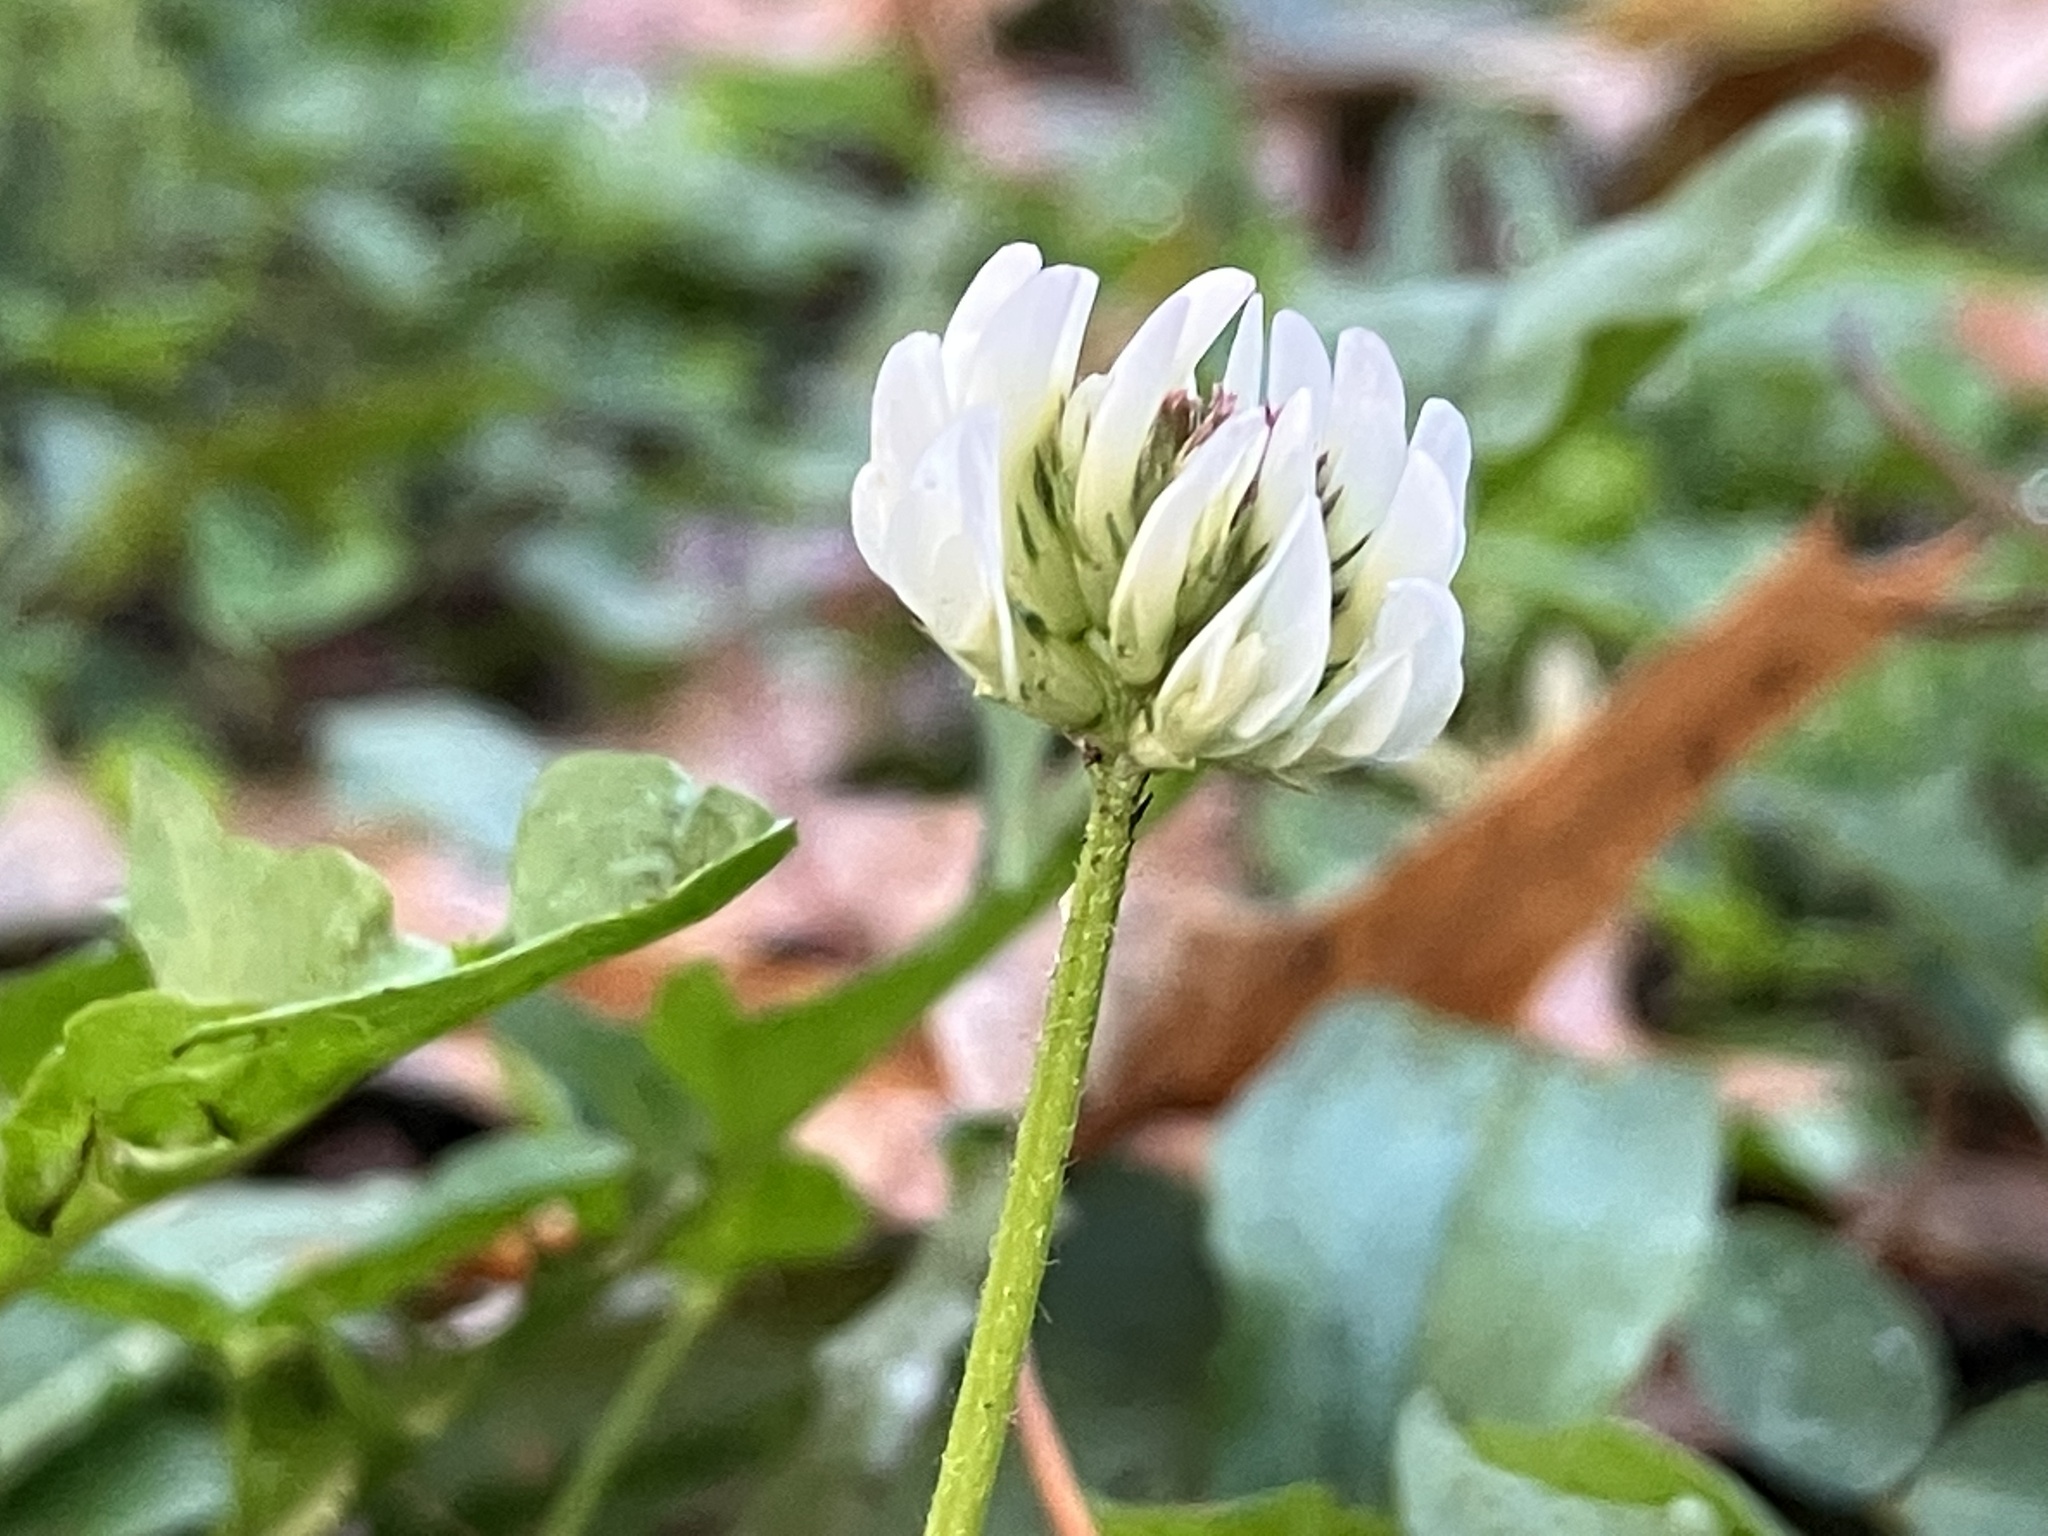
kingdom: Plantae
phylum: Tracheophyta
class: Magnoliopsida
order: Fabales
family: Fabaceae
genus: Trifolium
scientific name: Trifolium repens
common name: White clover
